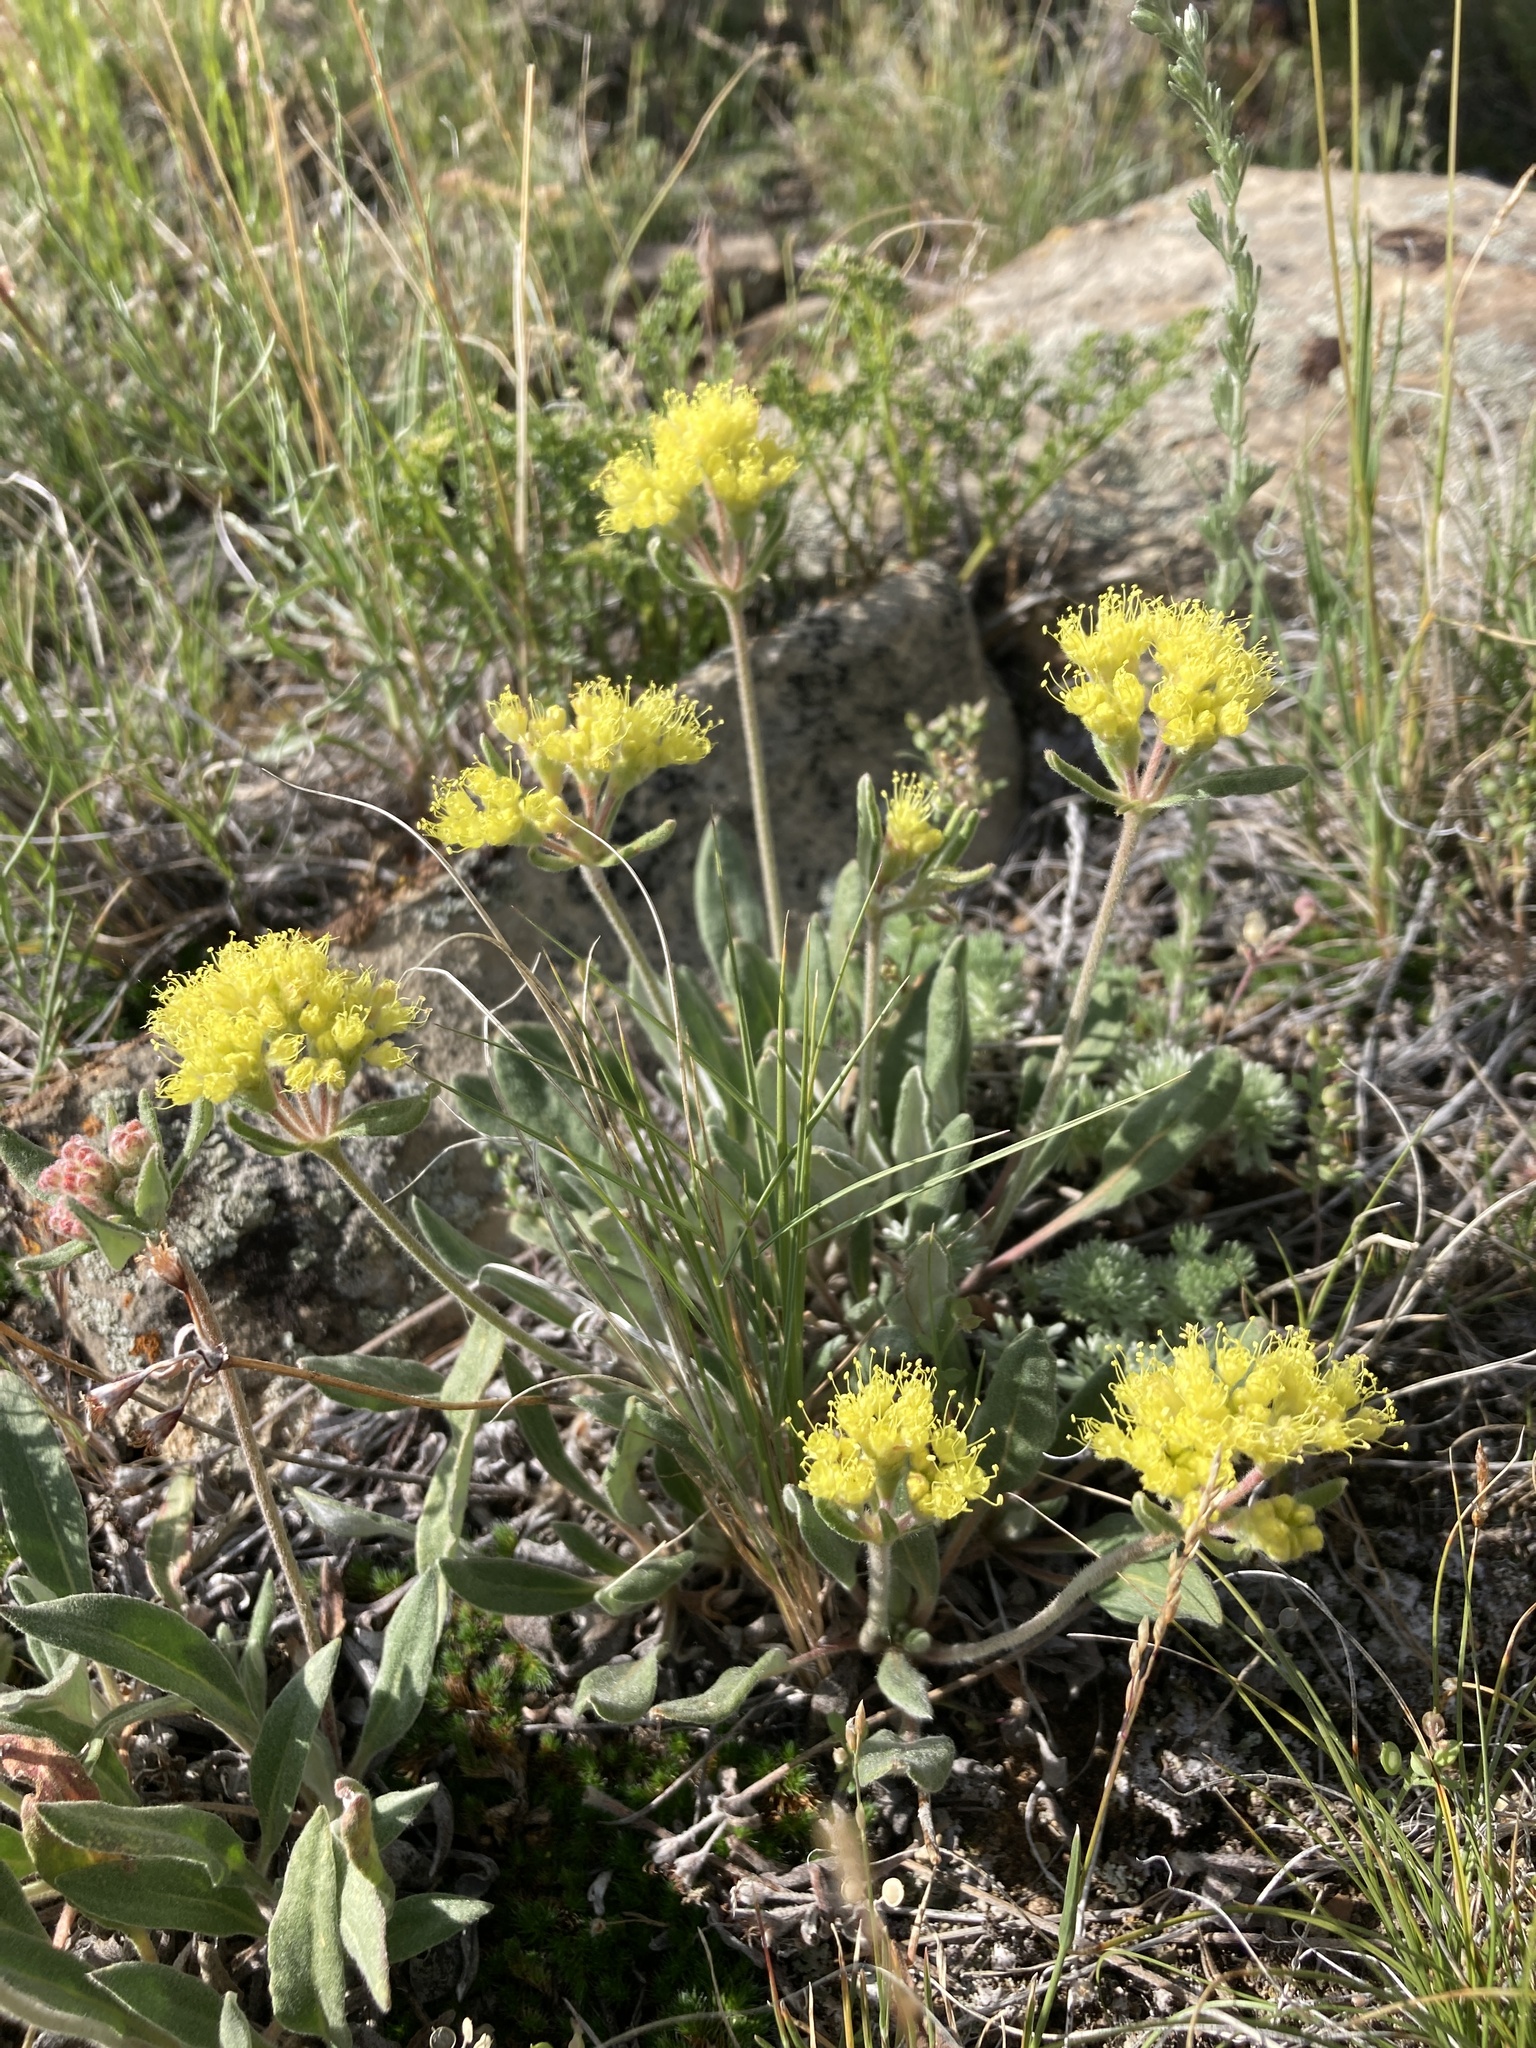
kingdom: Plantae
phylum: Tracheophyta
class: Magnoliopsida
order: Caryophyllales
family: Polygonaceae
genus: Eriogonum
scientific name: Eriogonum flavum
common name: Alpine golden wild buckwheat
